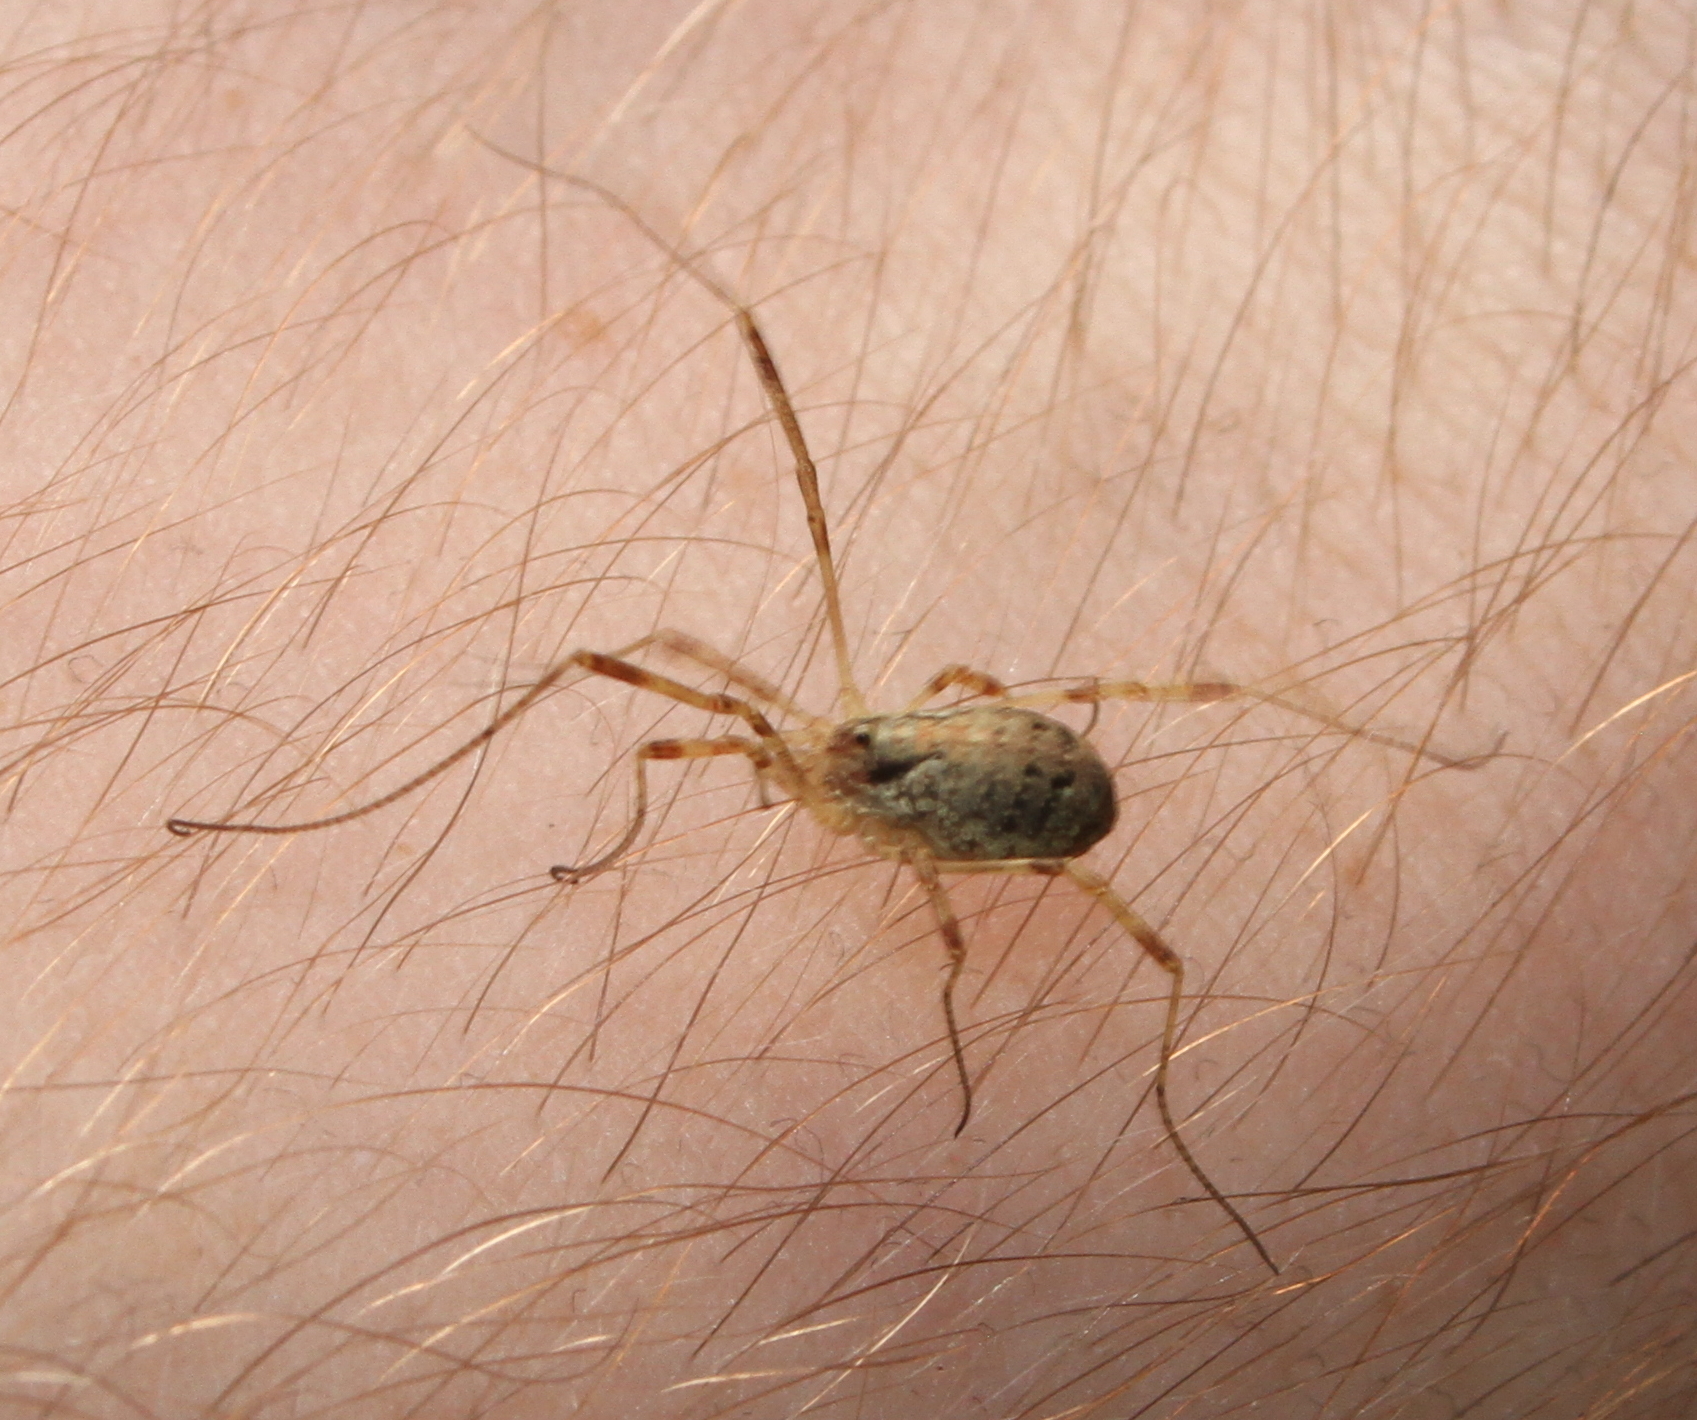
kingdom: Animalia
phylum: Arthropoda
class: Arachnida
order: Opiliones
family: Phalangiidae
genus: Paroligolophus
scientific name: Paroligolophus agrestis
